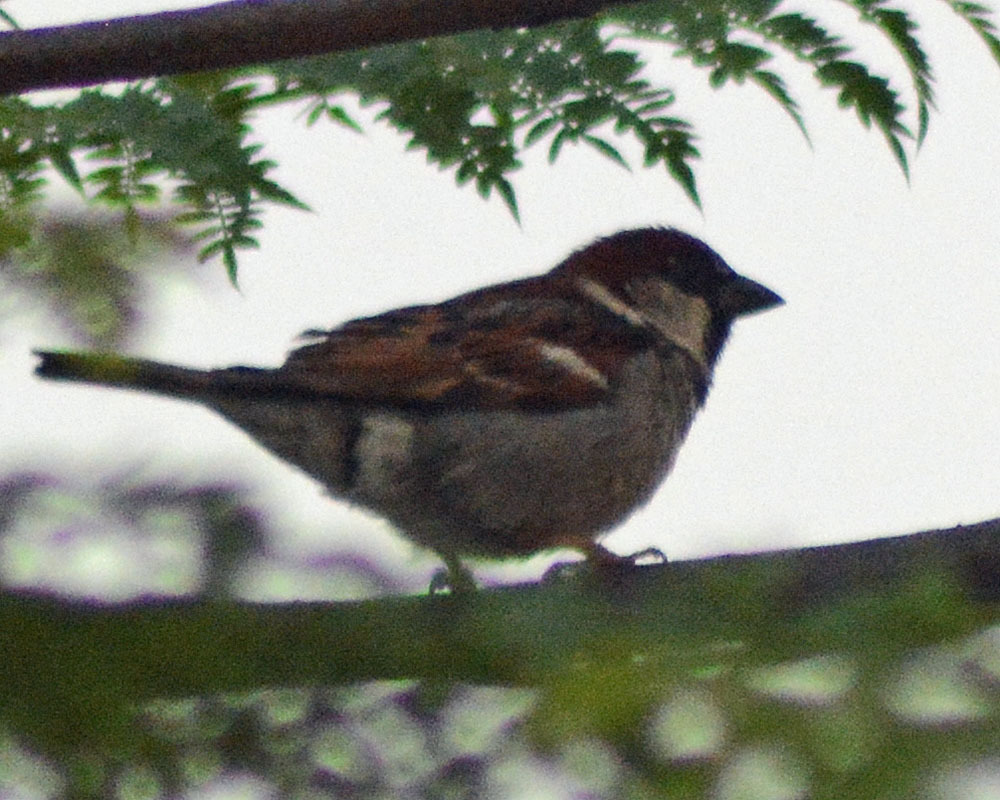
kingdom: Animalia
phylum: Chordata
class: Aves
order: Passeriformes
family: Passeridae
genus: Passer
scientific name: Passer domesticus
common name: House sparrow
